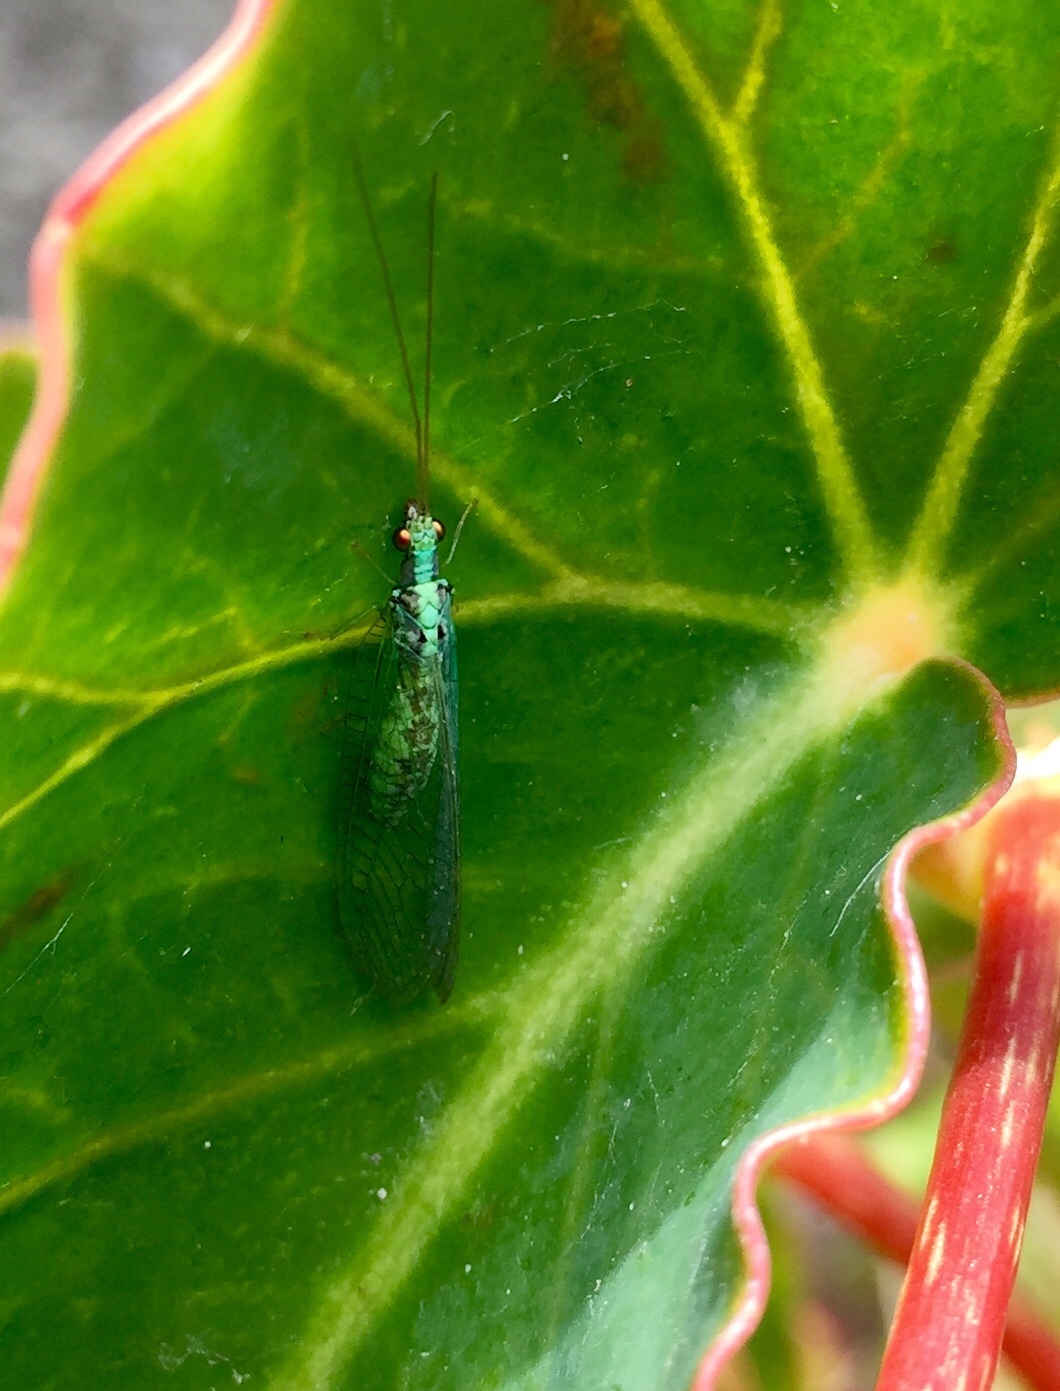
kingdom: Animalia
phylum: Arthropoda
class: Insecta
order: Neuroptera
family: Chrysopidae
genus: Pseudomallada
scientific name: Pseudomallada subcostalis
